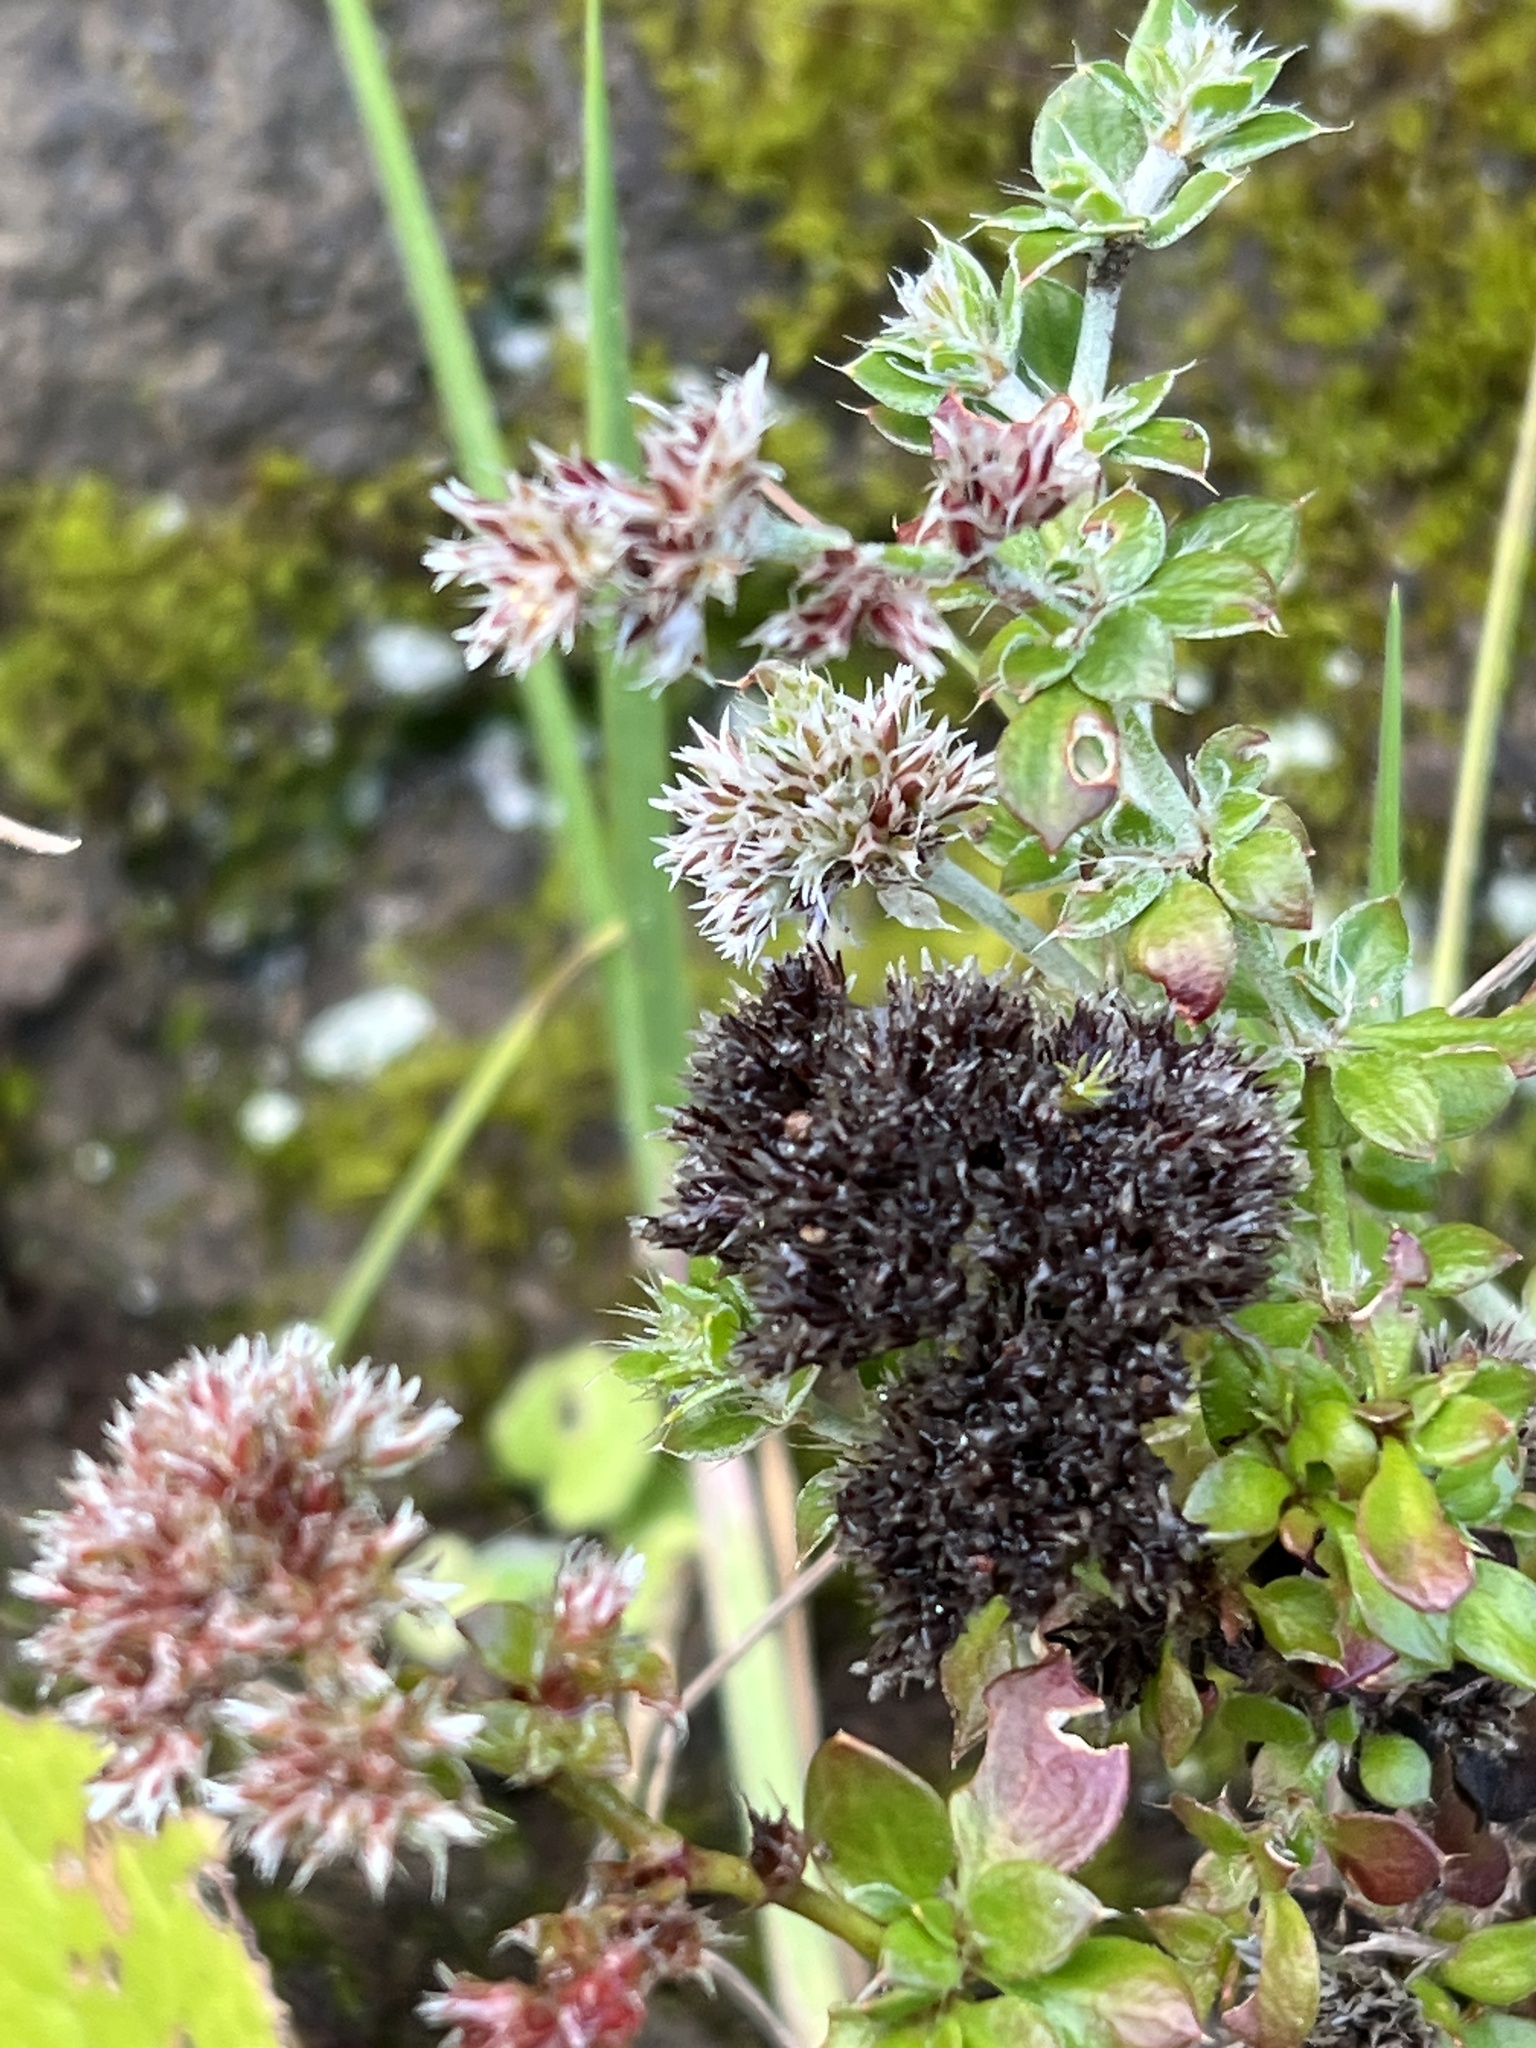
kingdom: Plantae
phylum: Tracheophyta
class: Magnoliopsida
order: Caryophyllales
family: Caryophyllaceae
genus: Polycarpaea
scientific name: Polycarpaea latifolia
